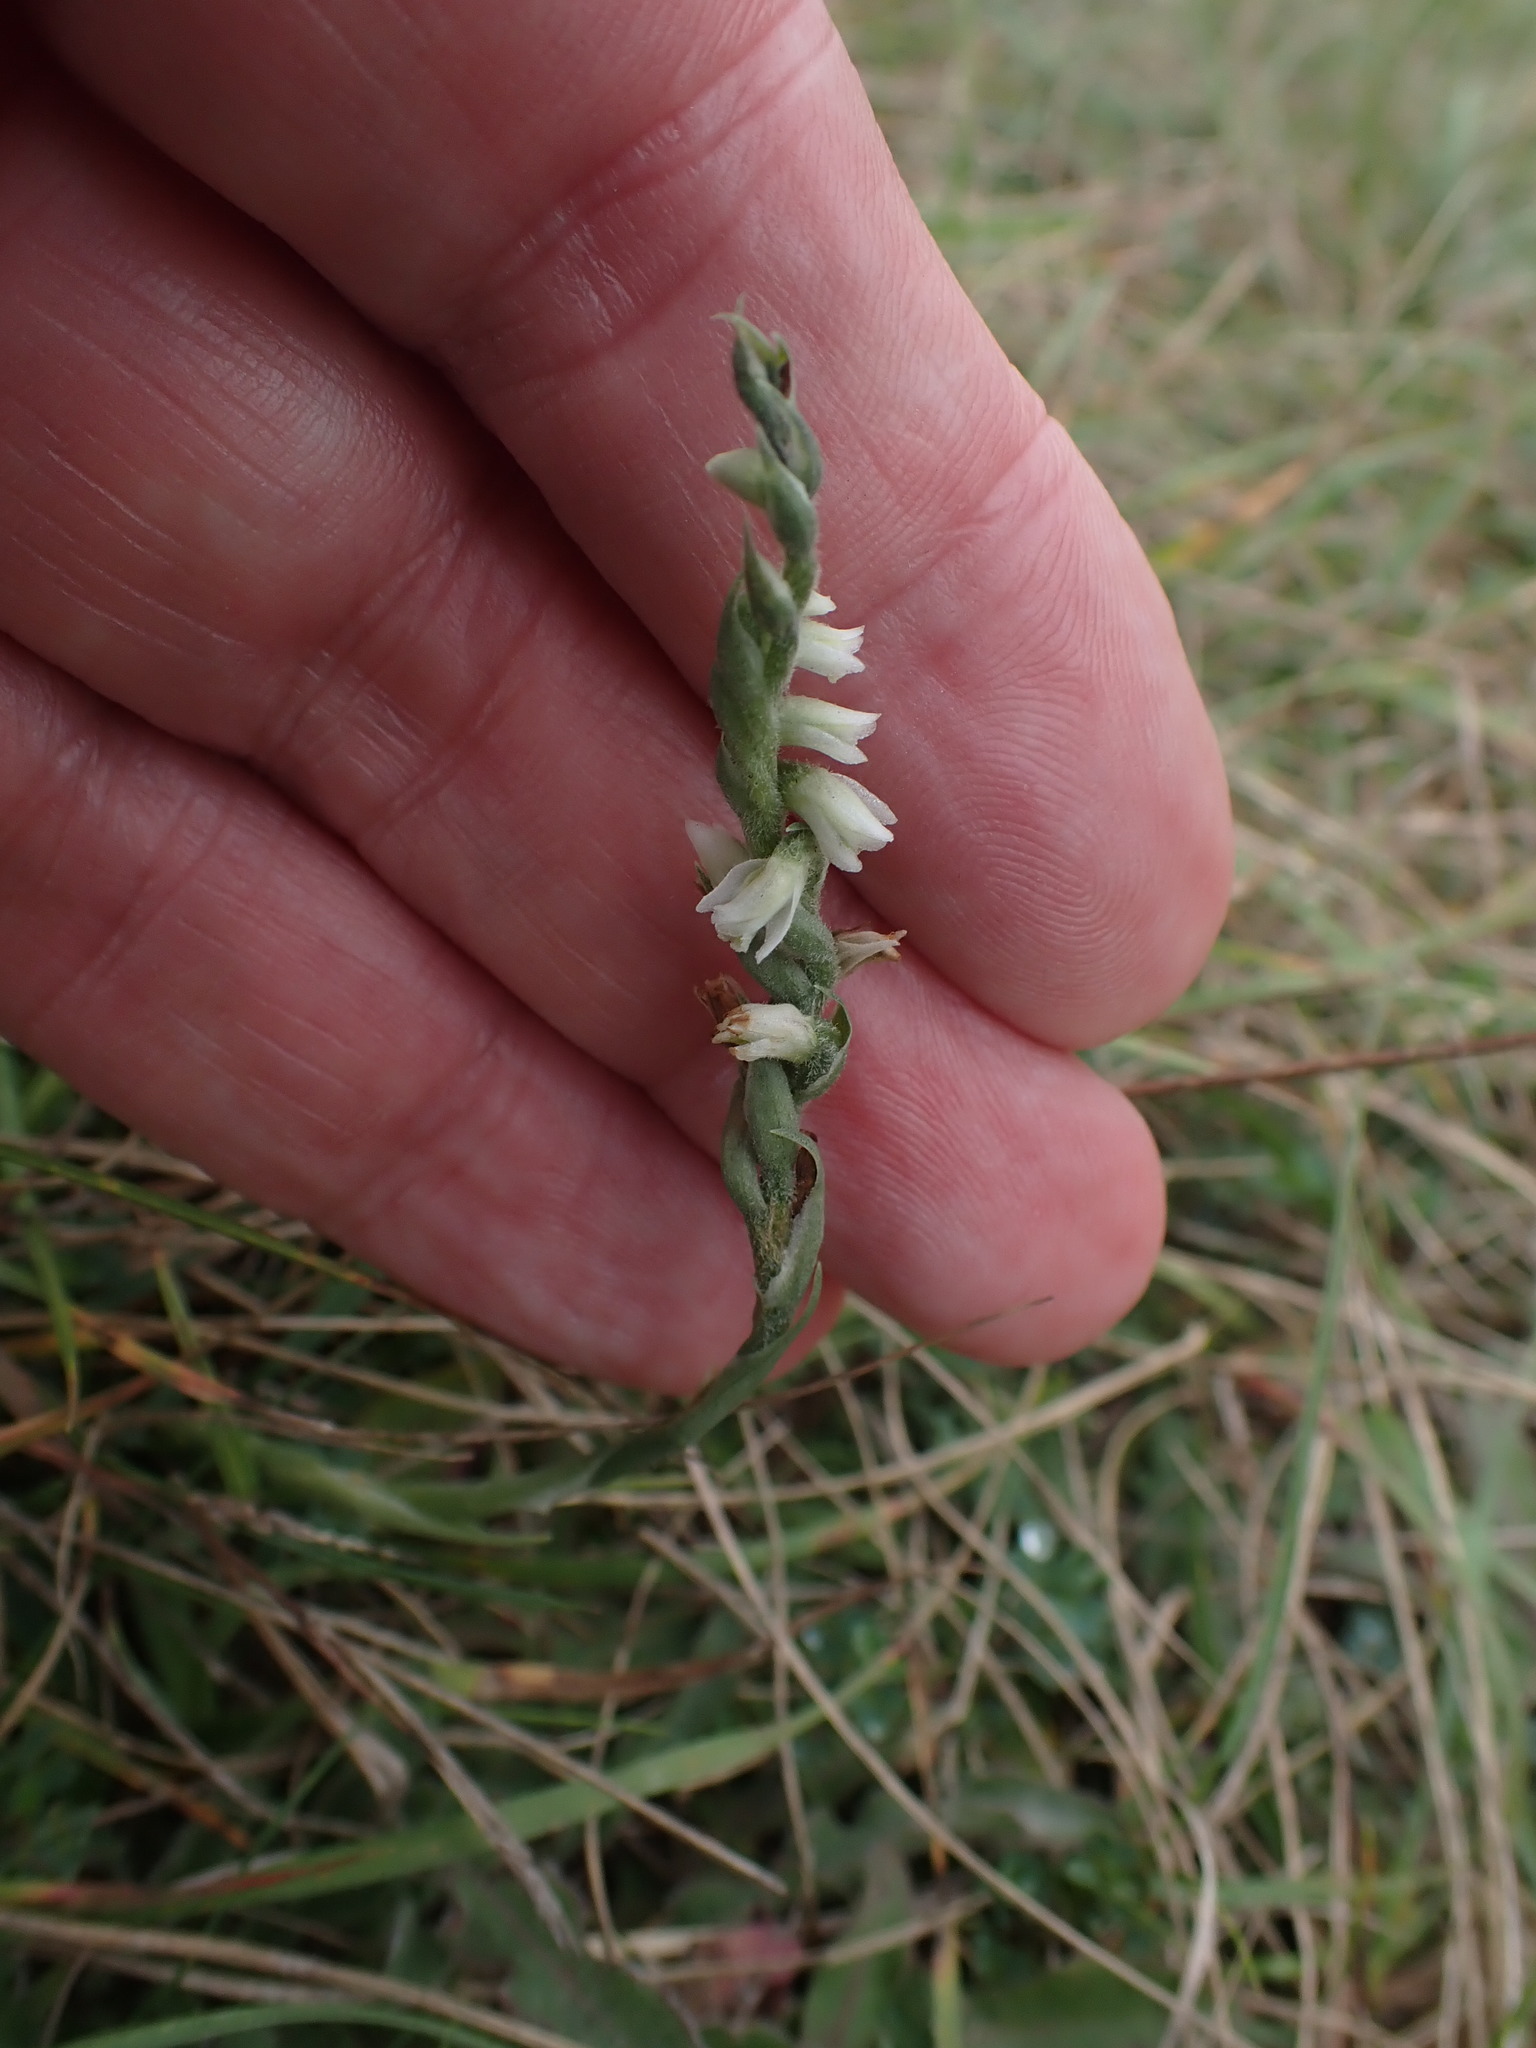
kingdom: Plantae
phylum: Tracheophyta
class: Liliopsida
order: Asparagales
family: Orchidaceae
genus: Spiranthes
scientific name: Spiranthes spiralis
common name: Autumn lady's-tresses
